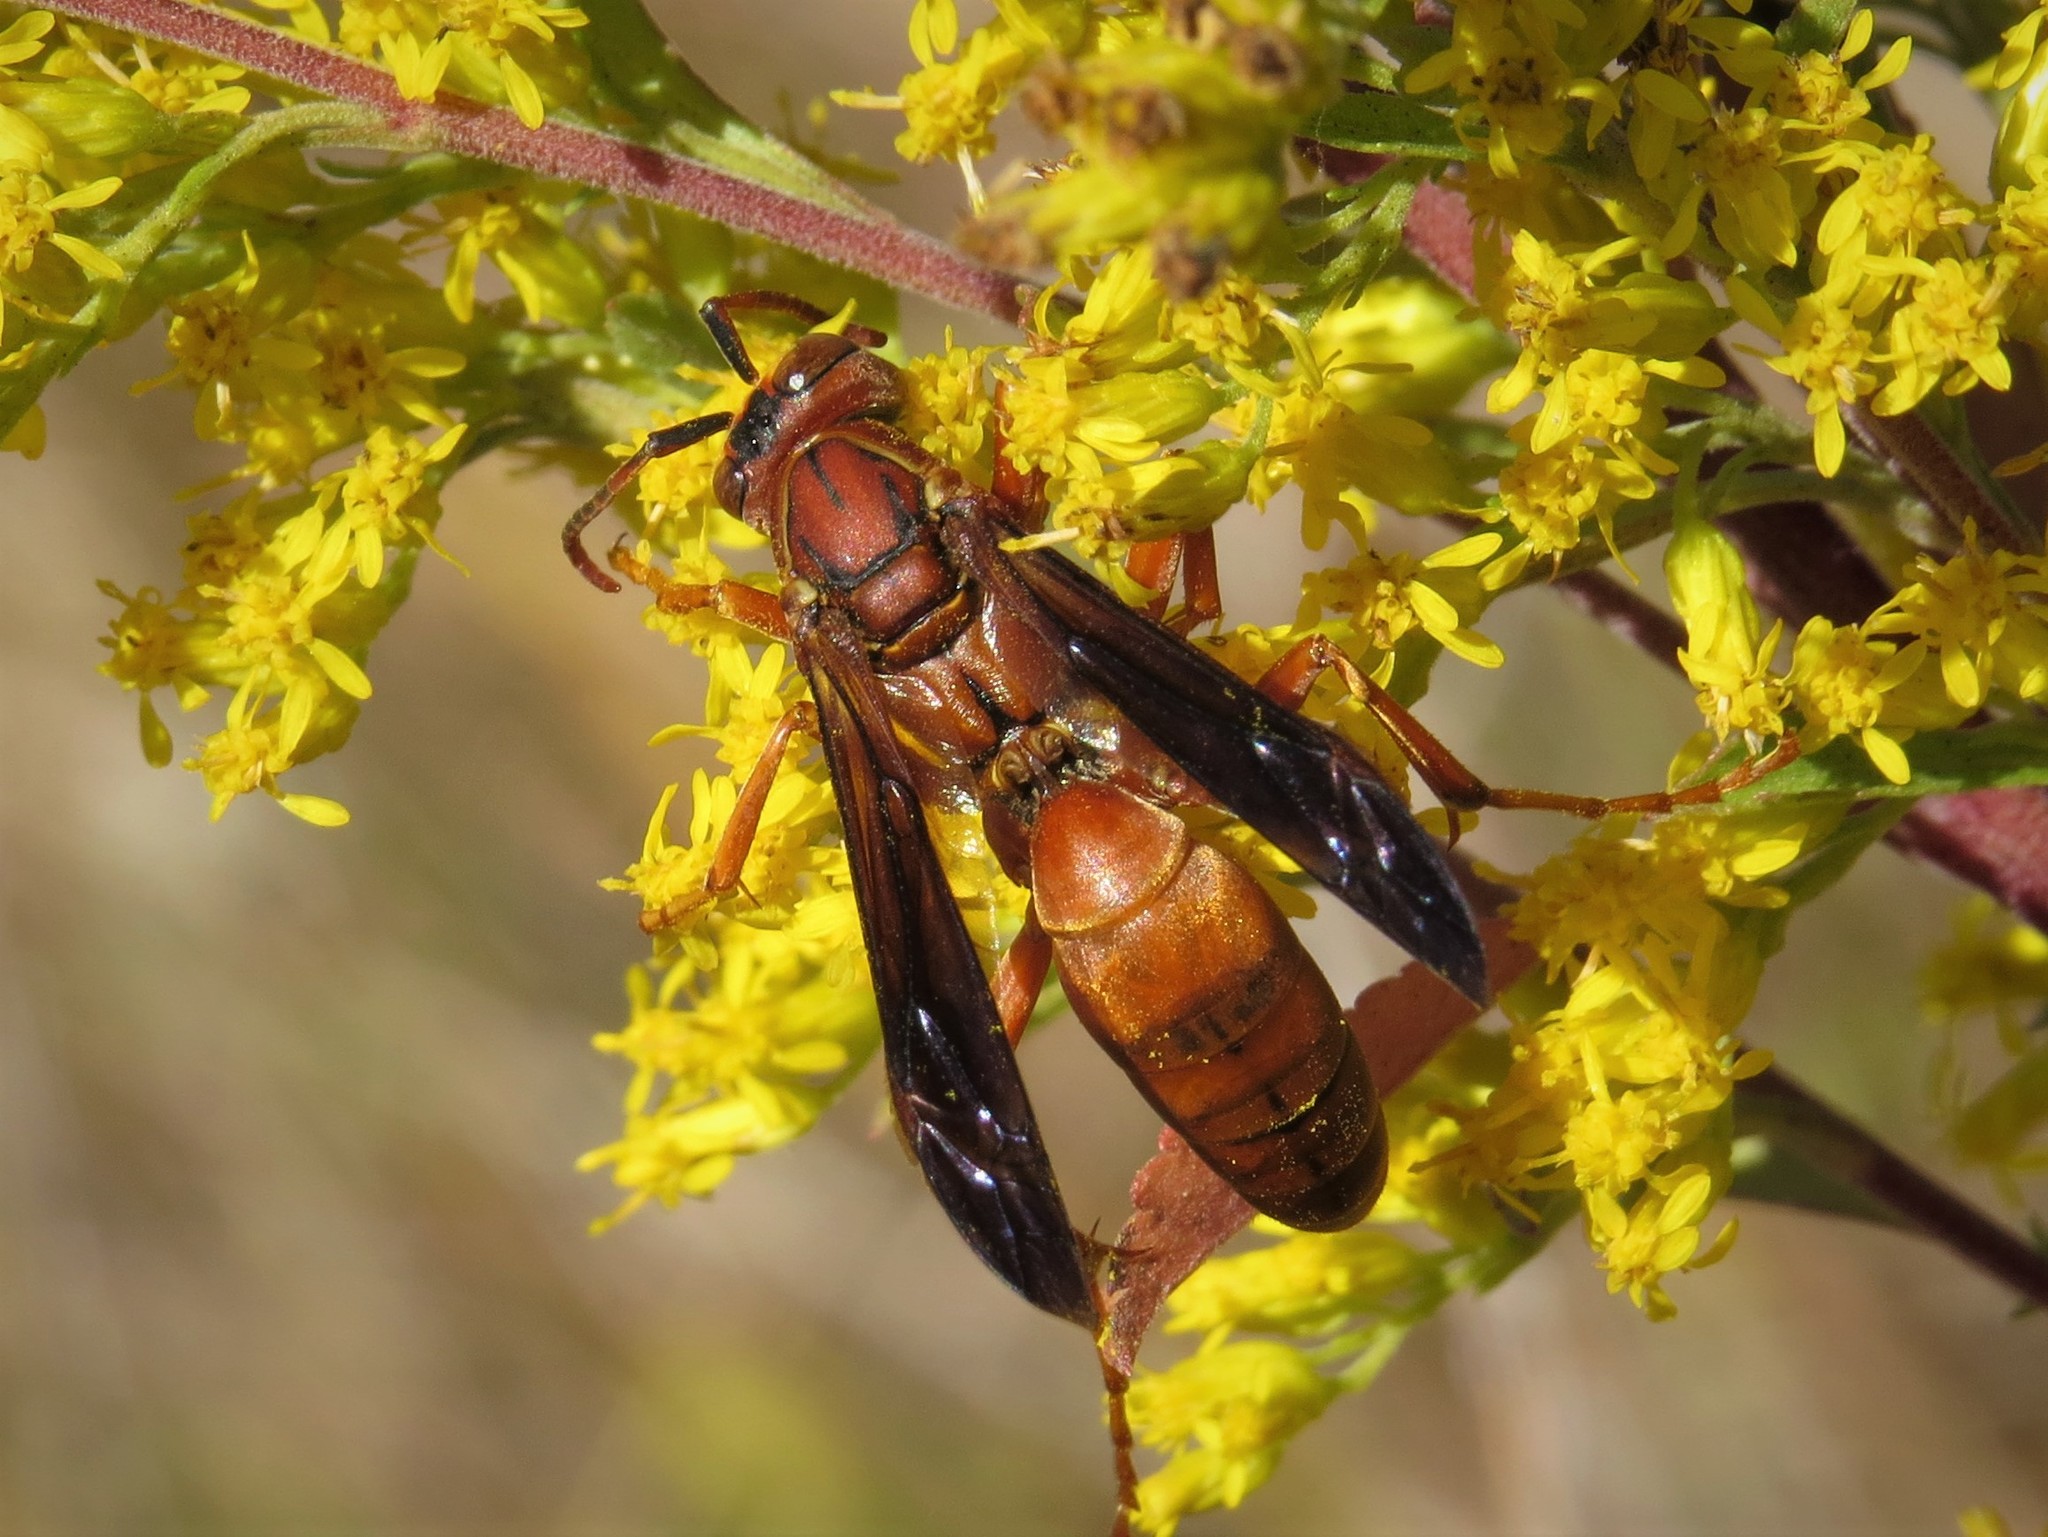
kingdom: Animalia
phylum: Arthropoda
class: Insecta
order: Hymenoptera
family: Eumenidae
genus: Polistes
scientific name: Polistes carolina
